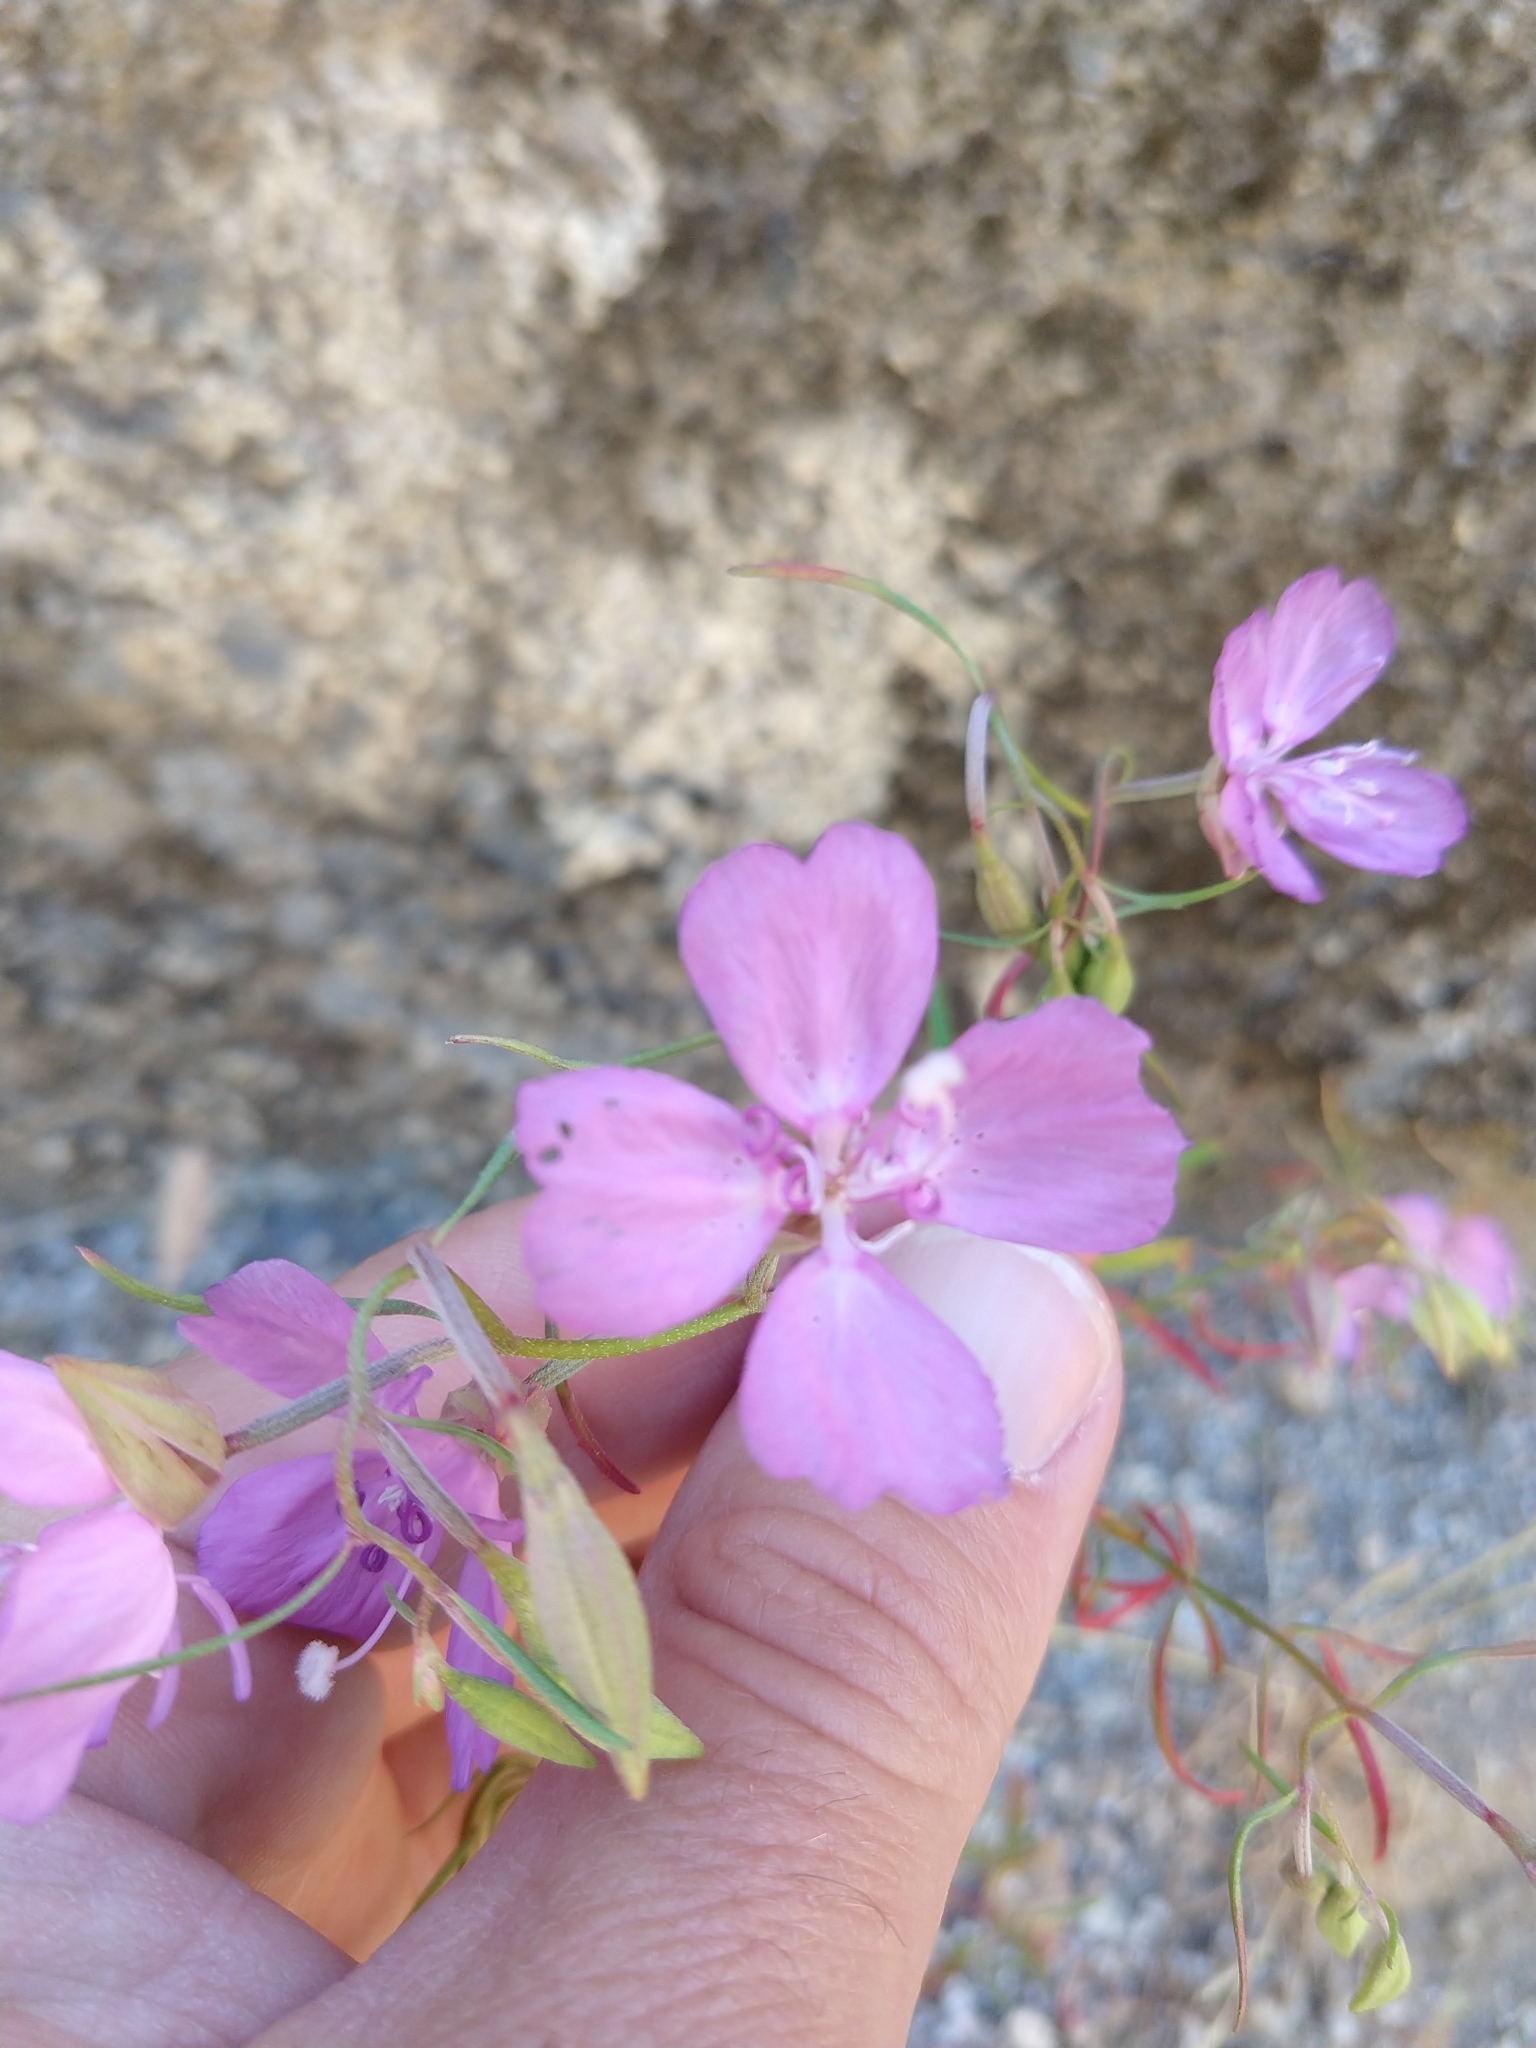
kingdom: Plantae
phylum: Tracheophyta
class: Magnoliopsida
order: Myrtales
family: Onagraceae
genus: Clarkia
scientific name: Clarkia biloba
